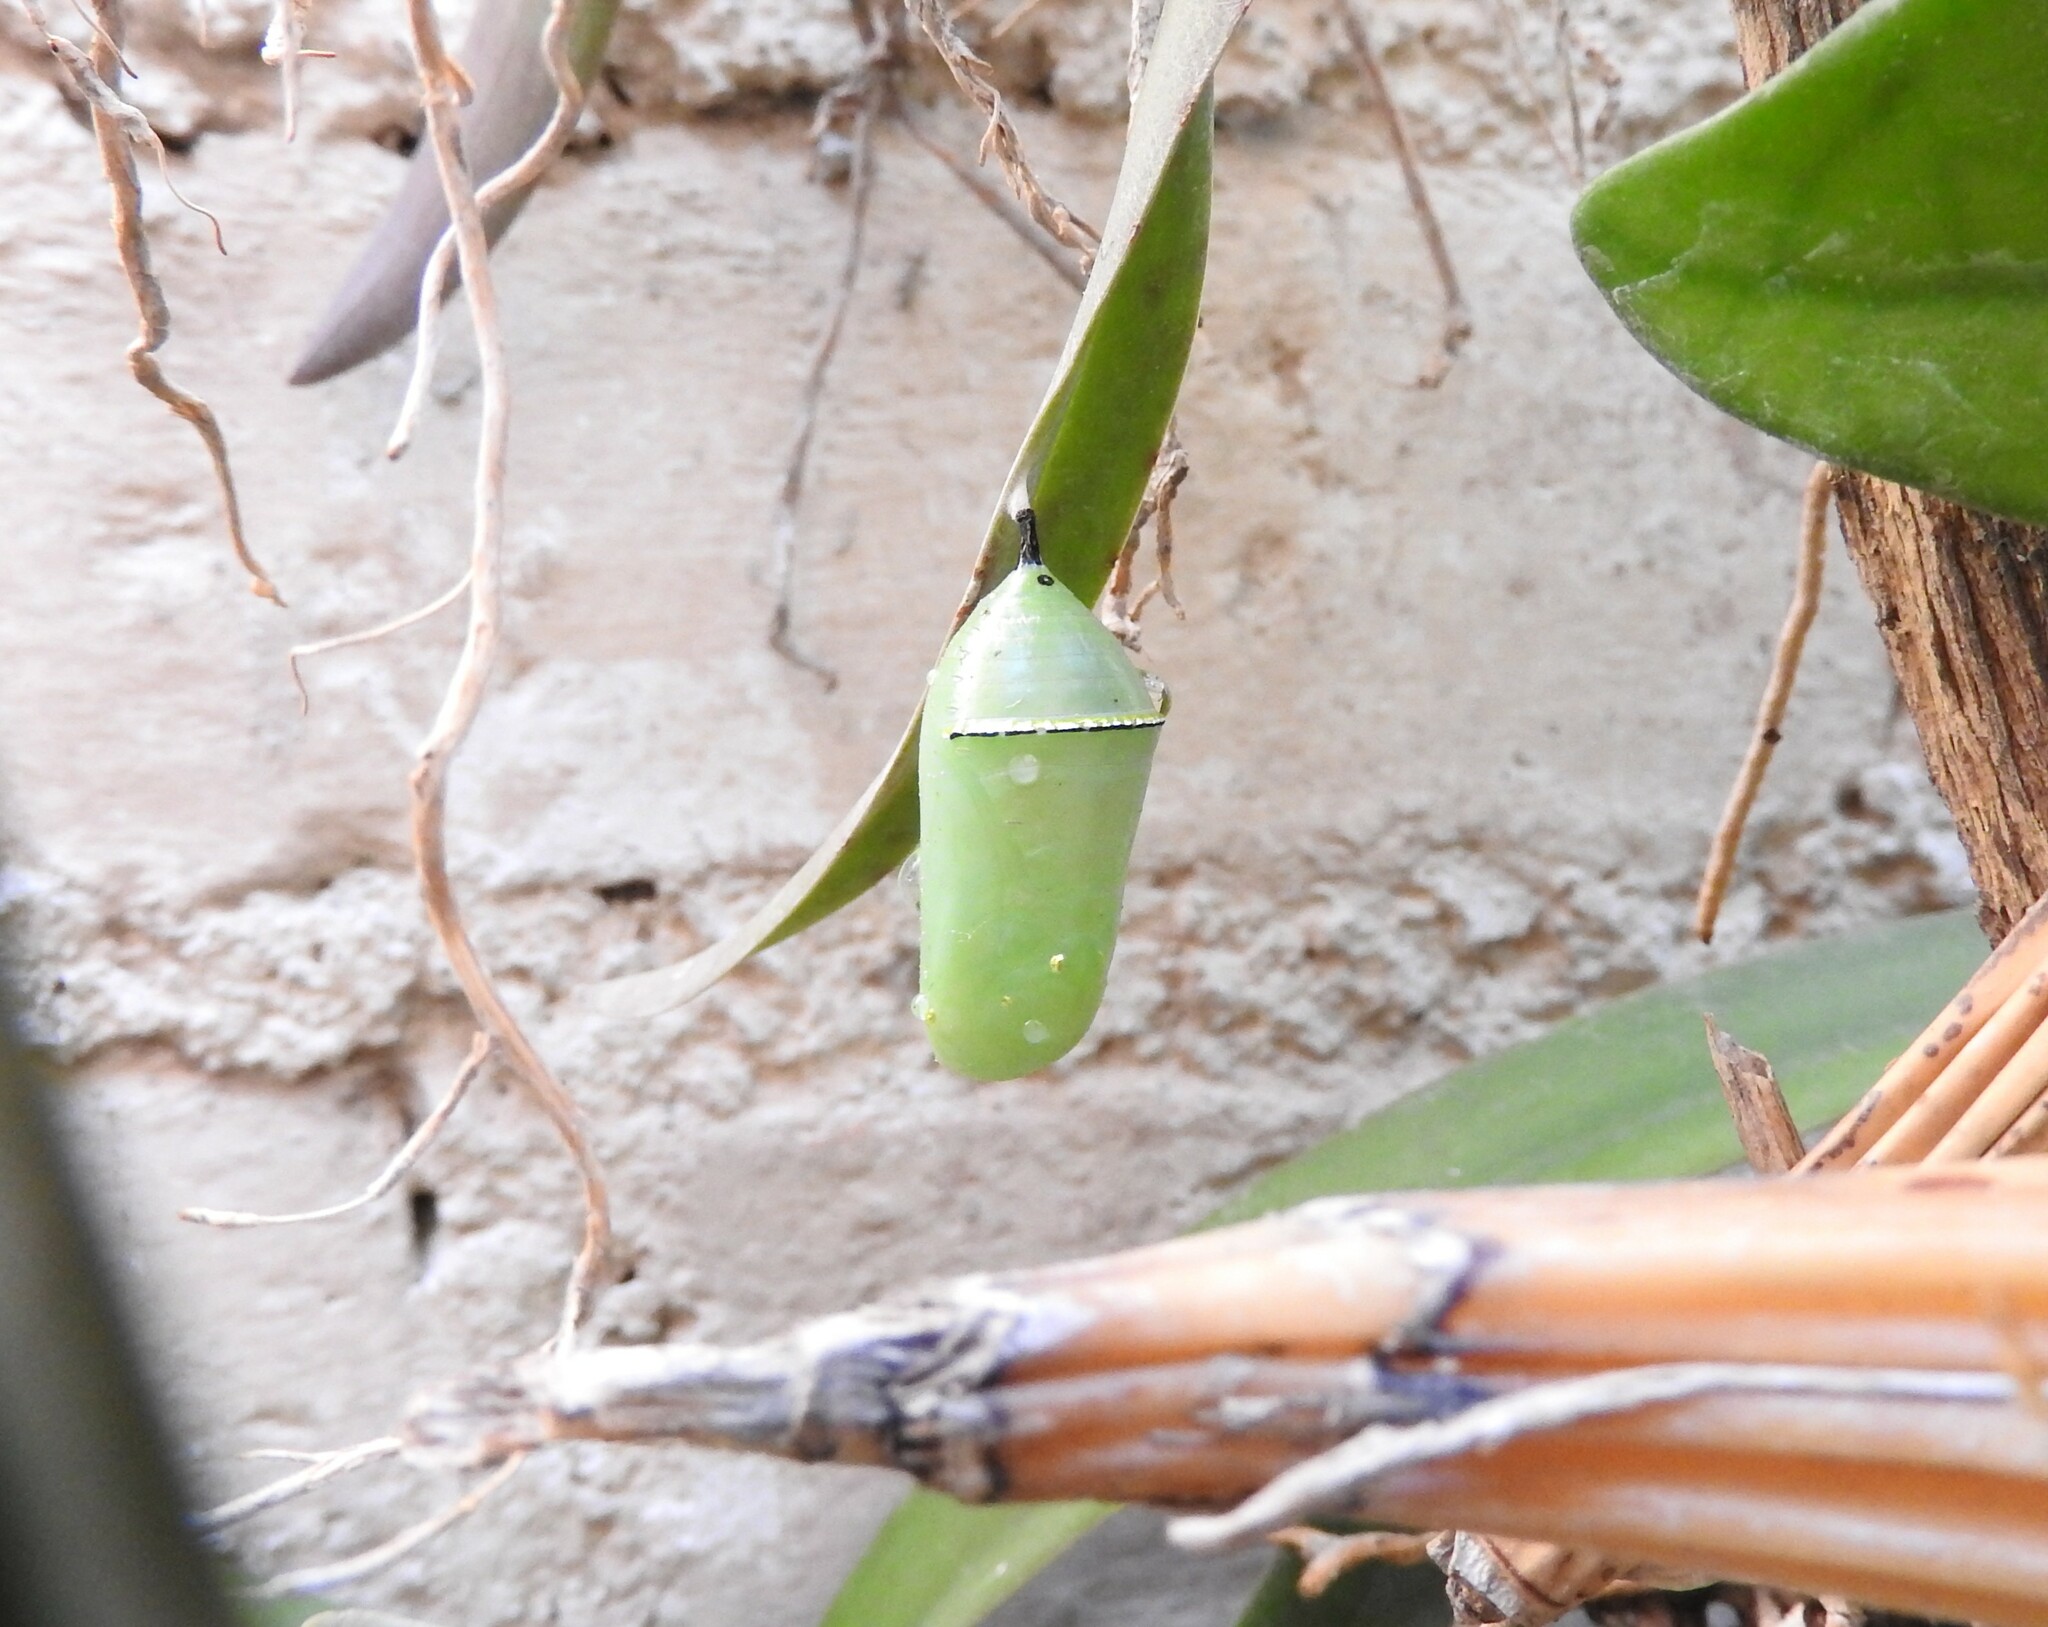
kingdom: Animalia
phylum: Arthropoda
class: Insecta
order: Lepidoptera
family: Nymphalidae
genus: Danaus
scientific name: Danaus plexippus
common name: Monarch
